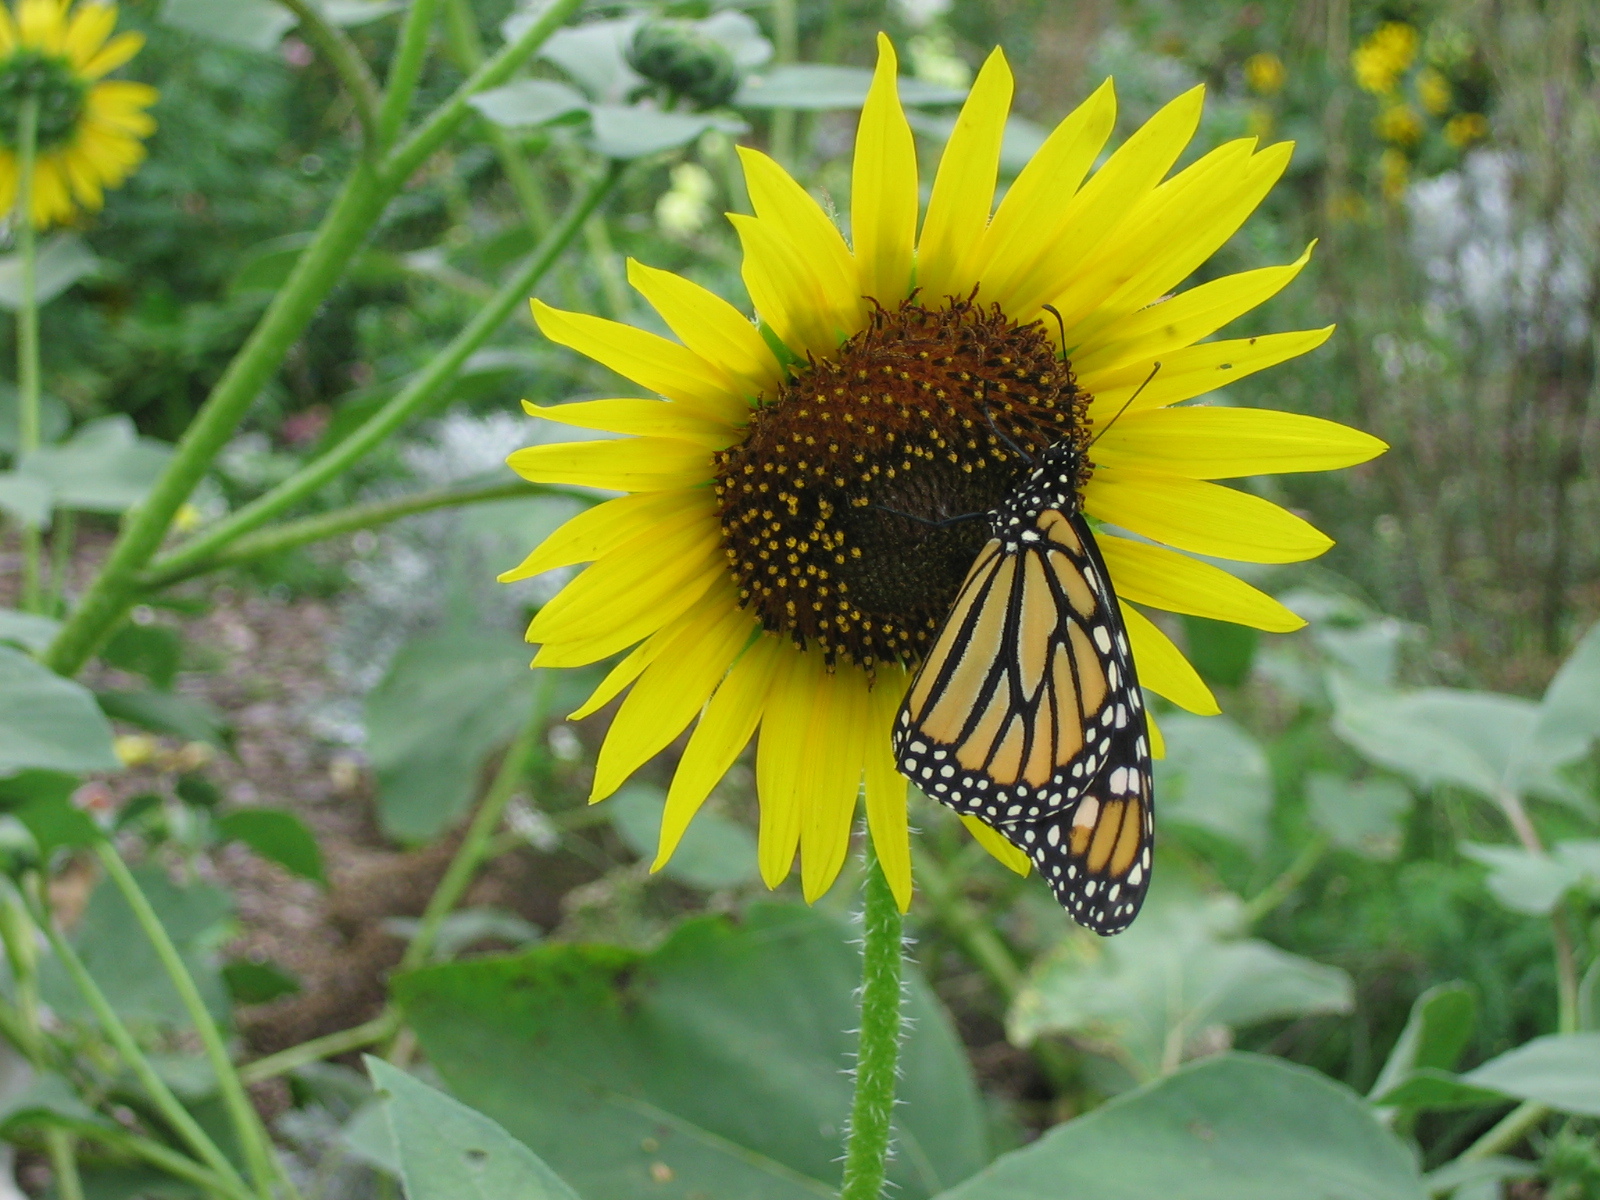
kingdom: Animalia
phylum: Arthropoda
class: Insecta
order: Lepidoptera
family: Nymphalidae
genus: Danaus
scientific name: Danaus plexippus
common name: Monarch
